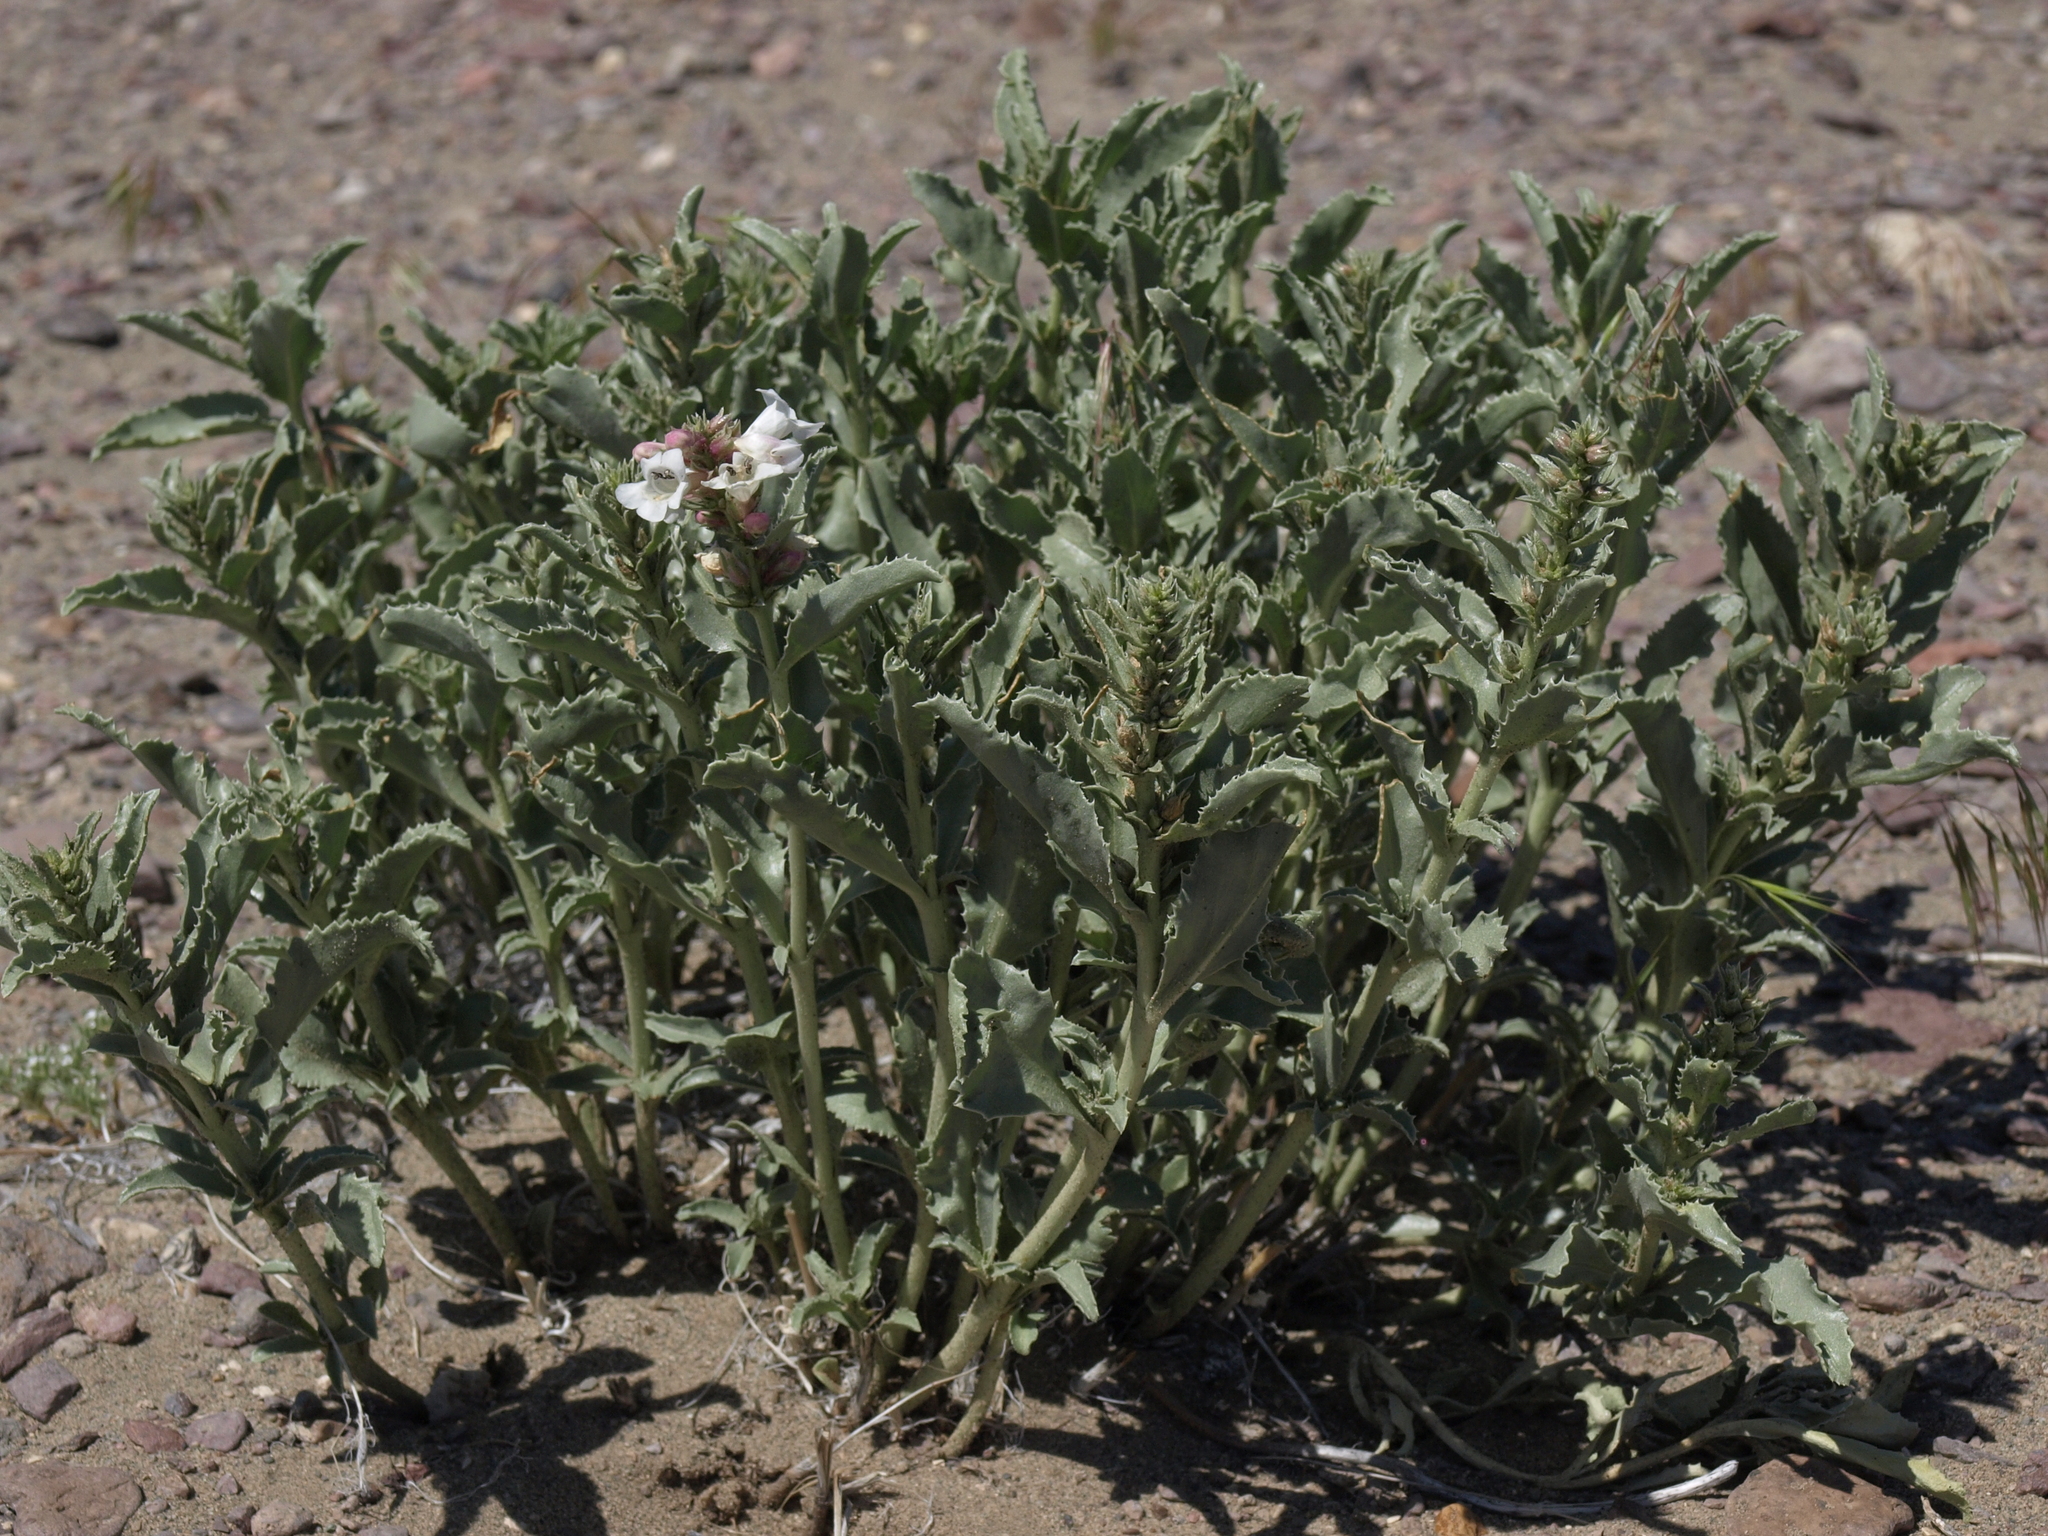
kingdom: Plantae
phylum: Tracheophyta
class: Magnoliopsida
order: Lamiales
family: Plantaginaceae
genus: Penstemon
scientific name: Penstemon arenarius
